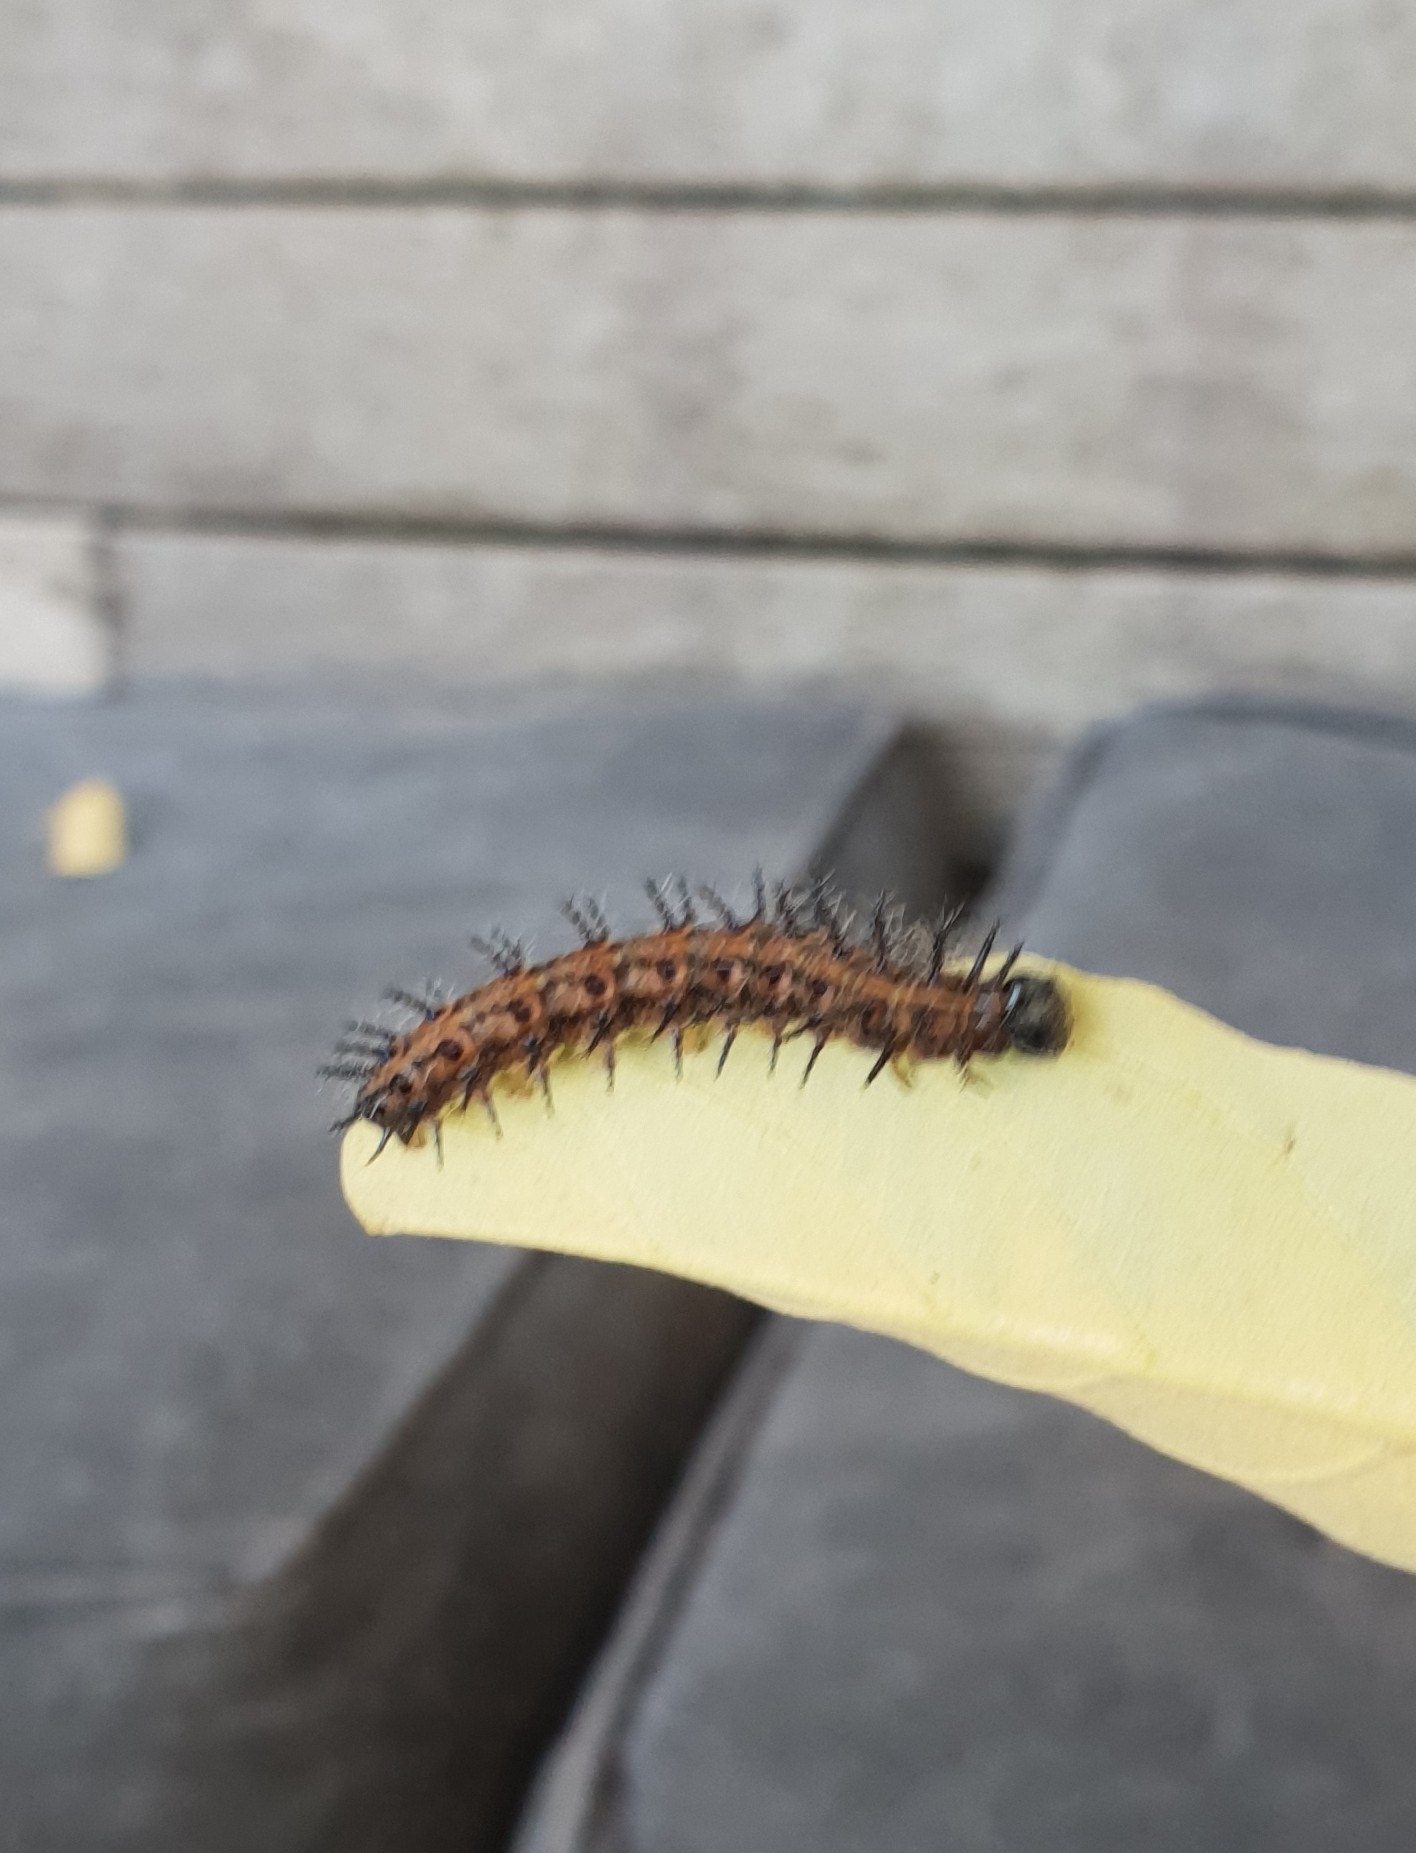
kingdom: Animalia
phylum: Arthropoda
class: Insecta
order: Lepidoptera
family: Nymphalidae
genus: Acraea
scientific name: Acraea horta
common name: Garden acraea
